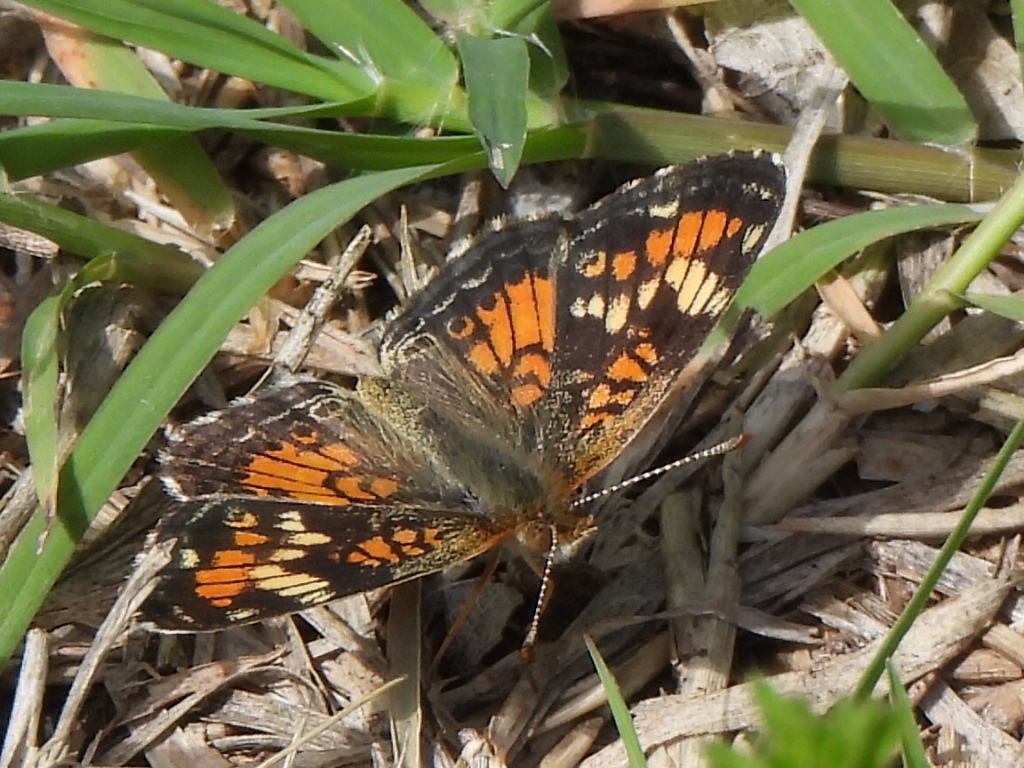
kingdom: Animalia
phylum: Arthropoda
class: Insecta
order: Lepidoptera
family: Nymphalidae
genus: Phyciodes
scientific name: Phyciodes phaon
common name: Phaon crescent
